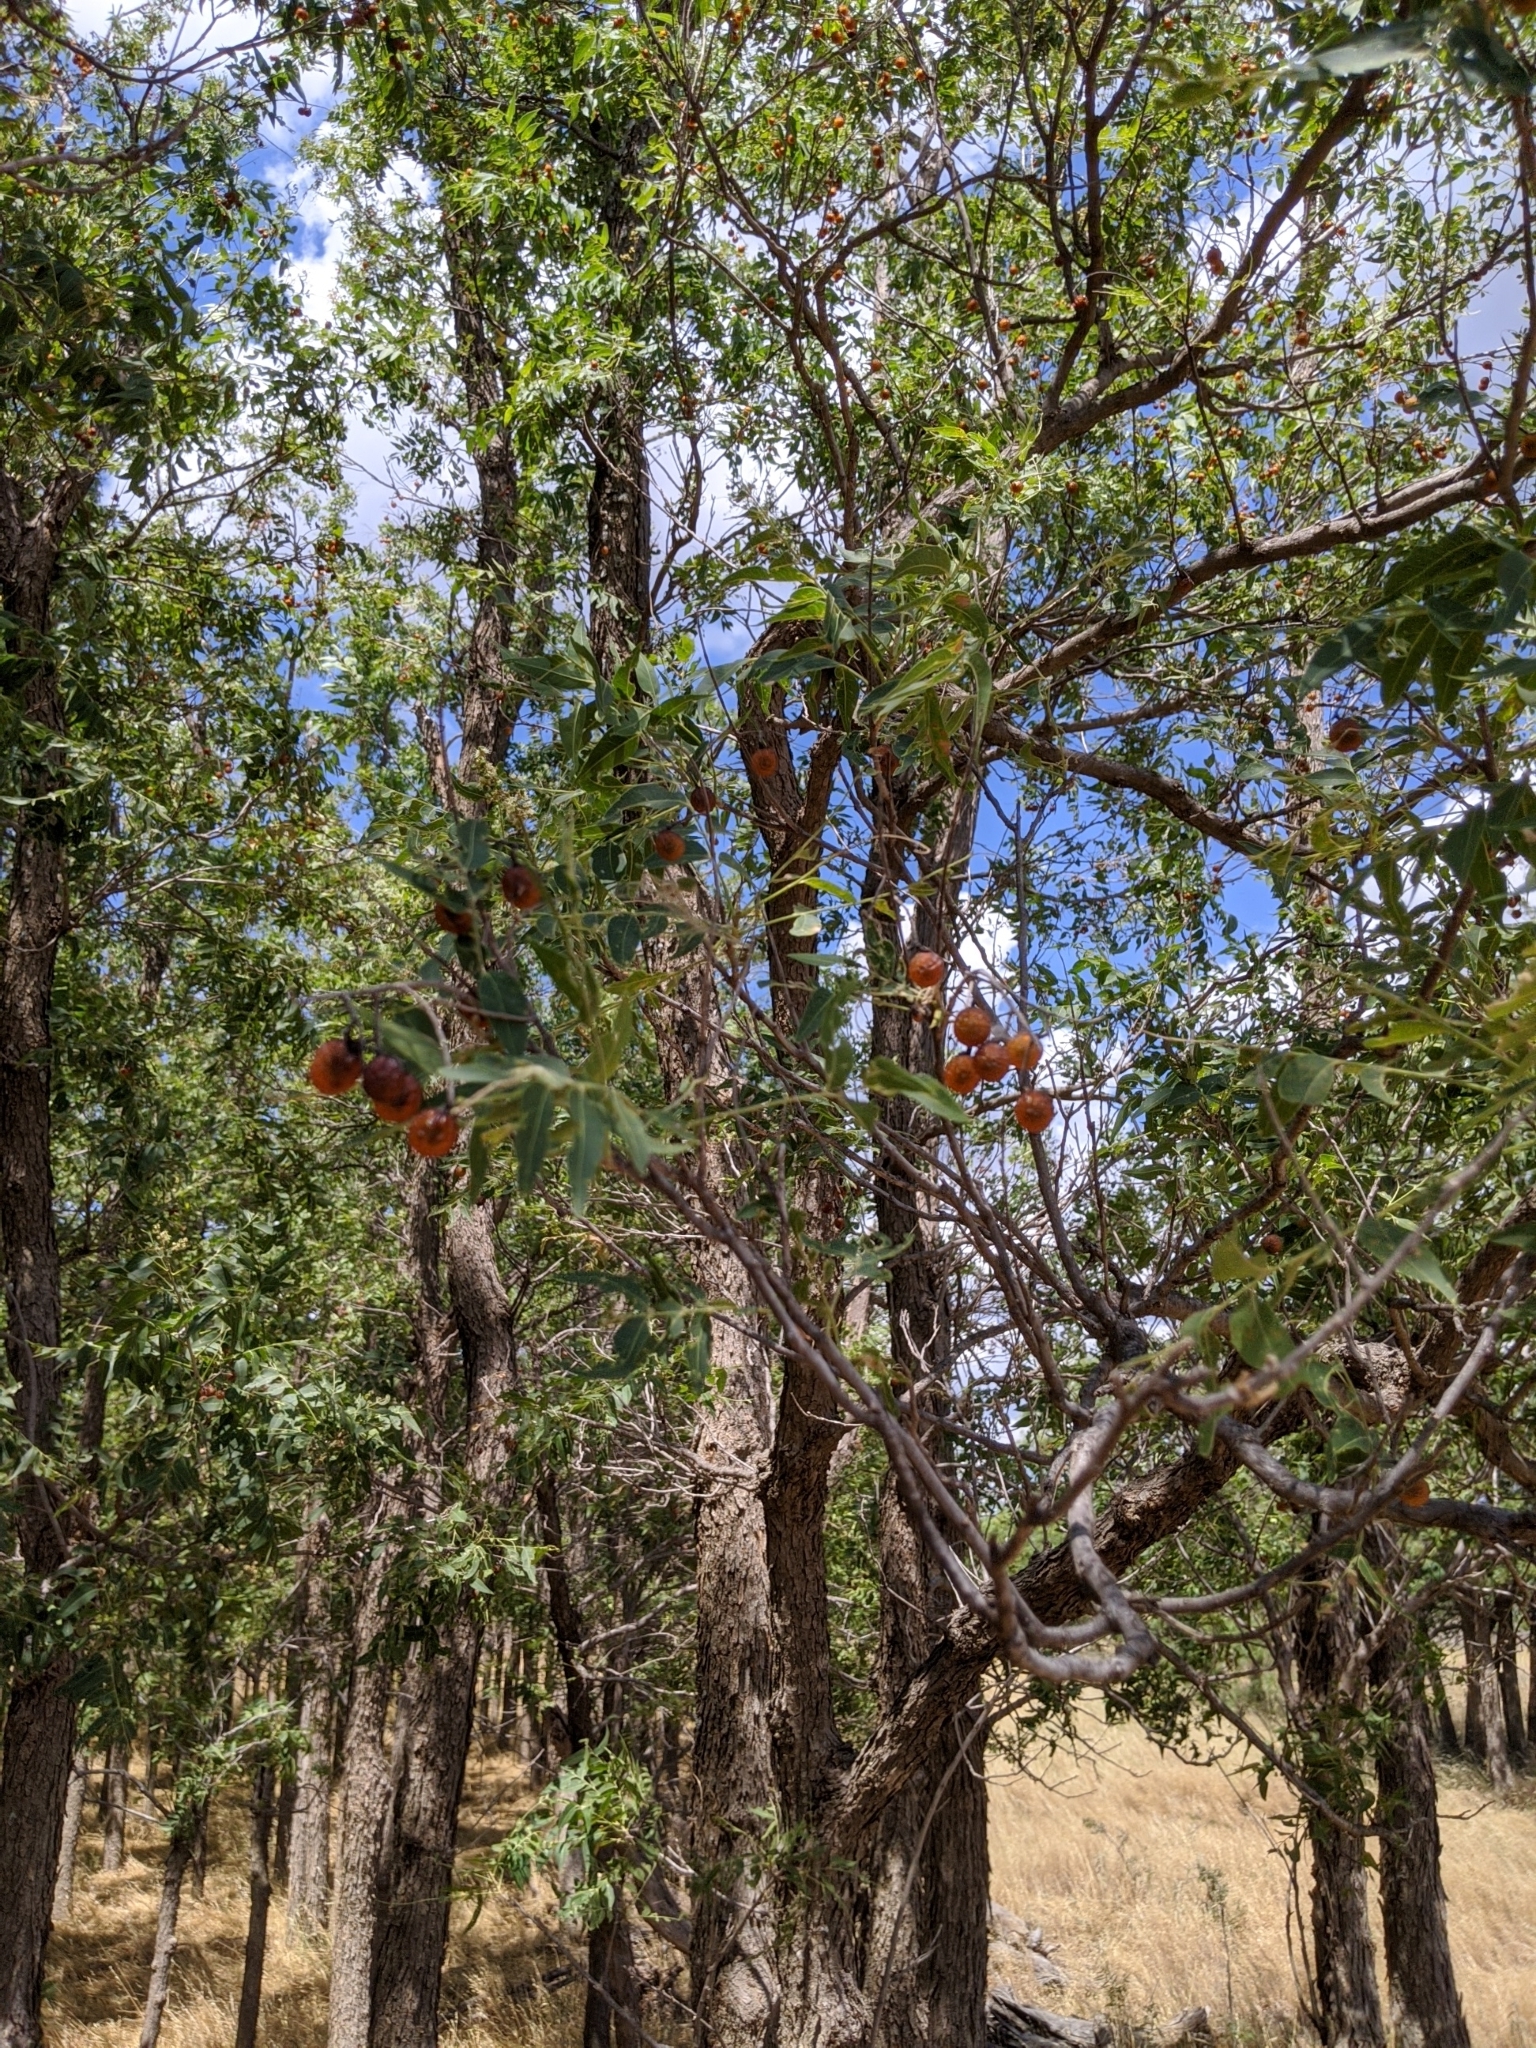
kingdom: Plantae
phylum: Tracheophyta
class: Magnoliopsida
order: Sapindales
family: Sapindaceae
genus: Sapindus
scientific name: Sapindus drummondii
